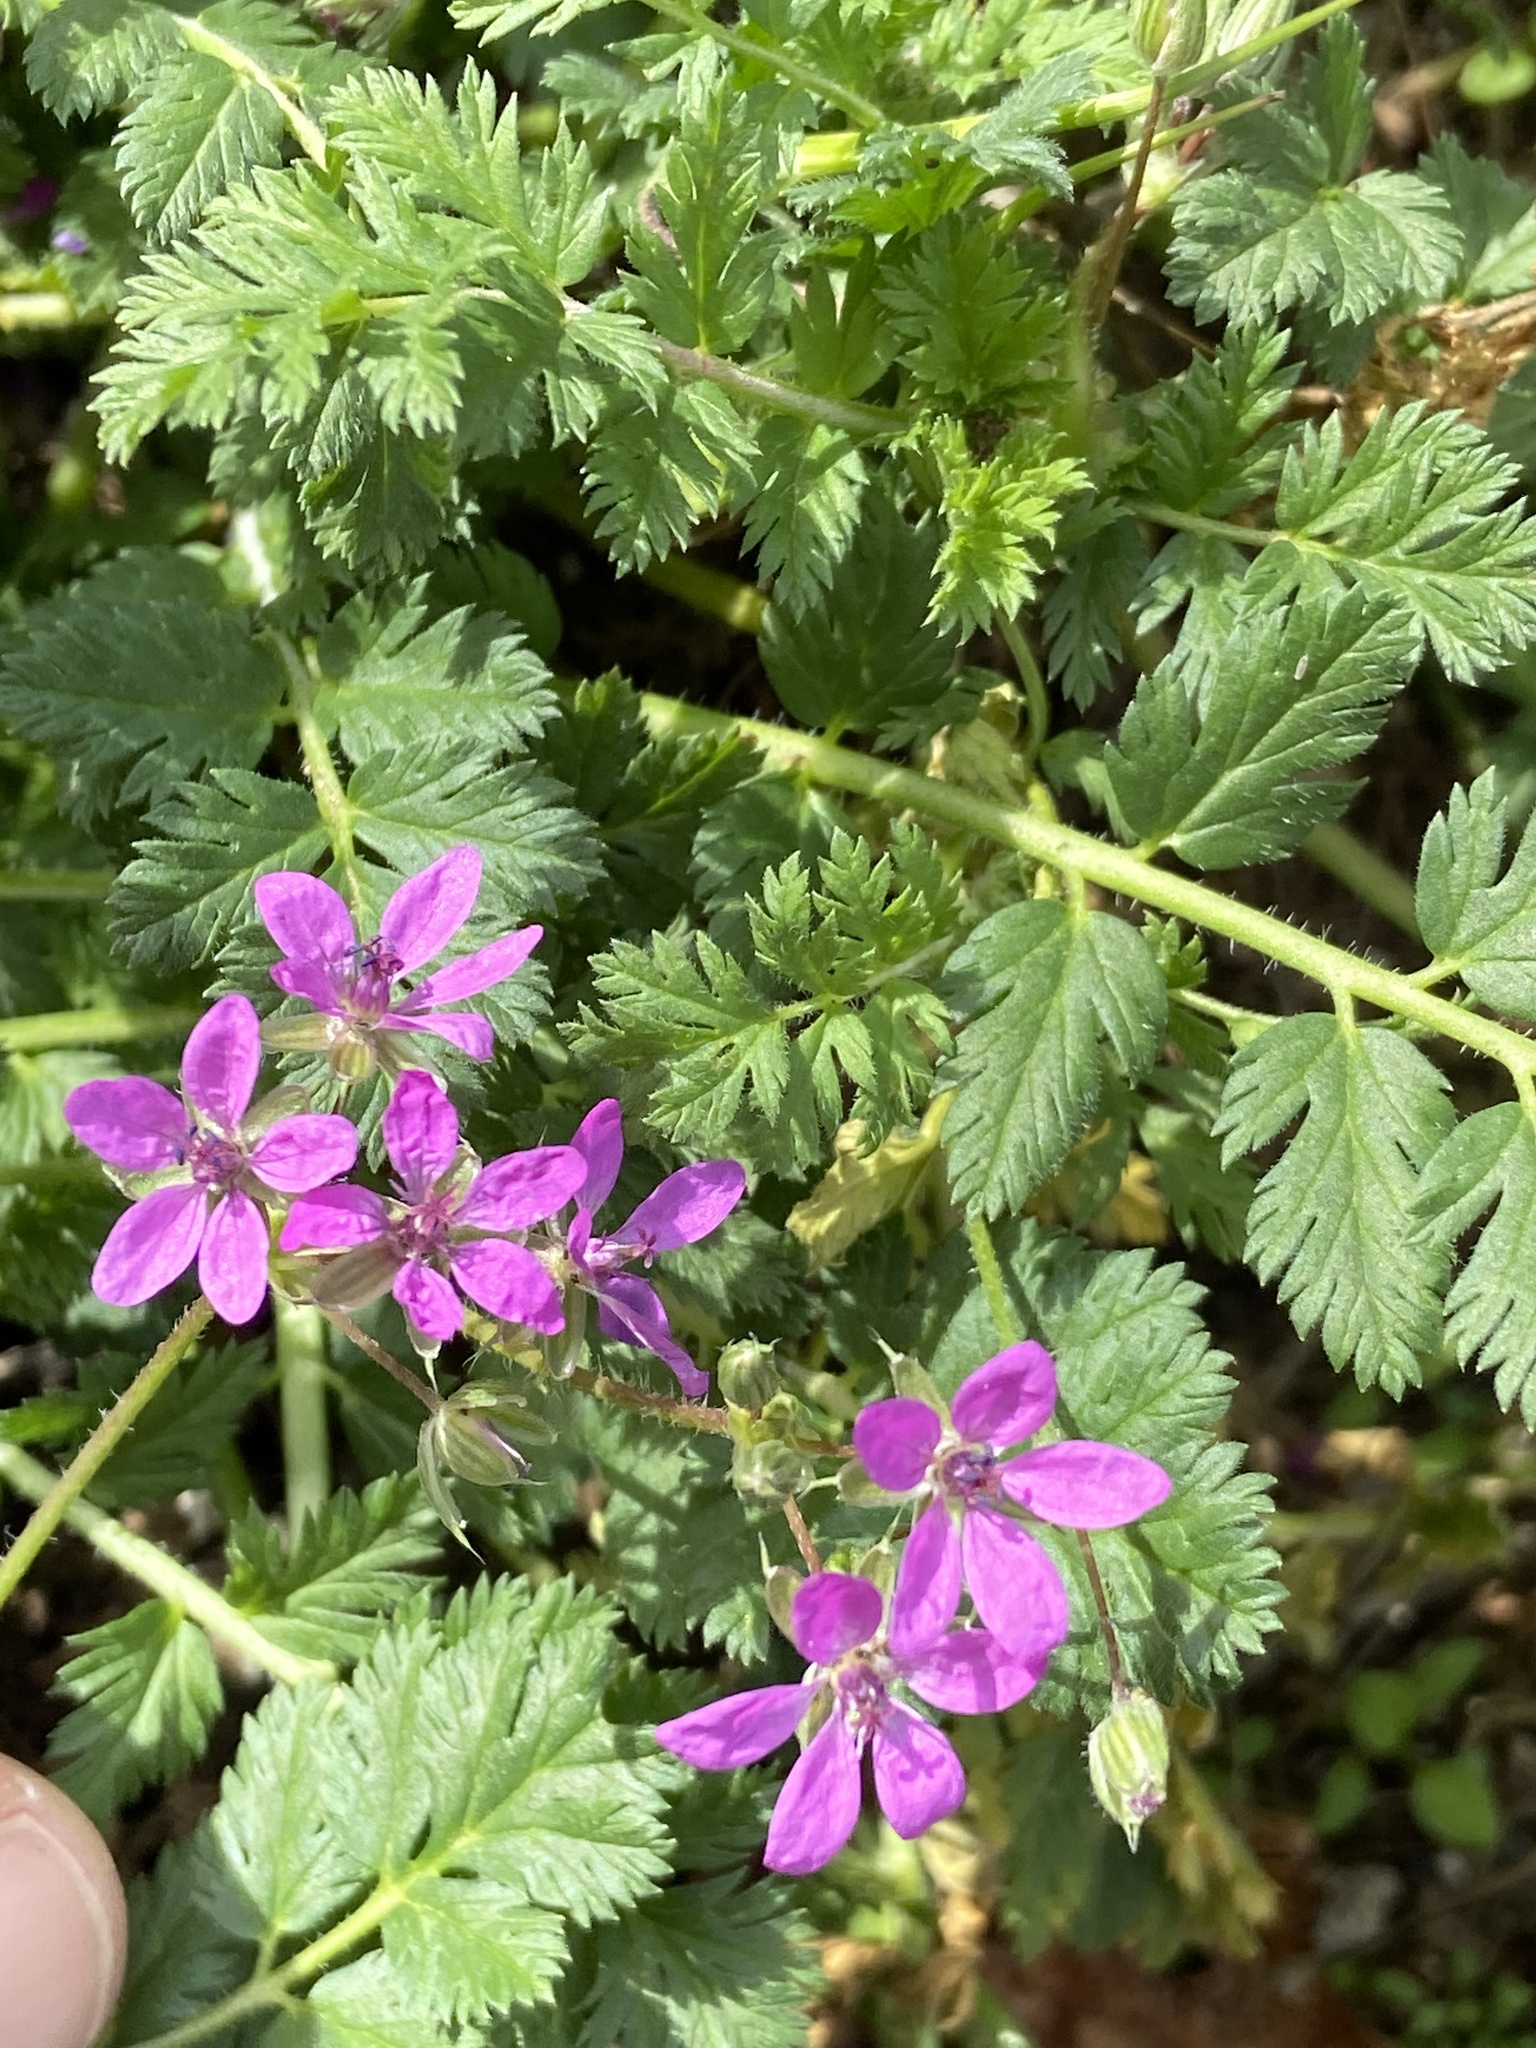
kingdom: Plantae
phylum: Tracheophyta
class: Magnoliopsida
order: Geraniales
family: Geraniaceae
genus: Erodium
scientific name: Erodium cicutarium
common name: Common stork's-bill
